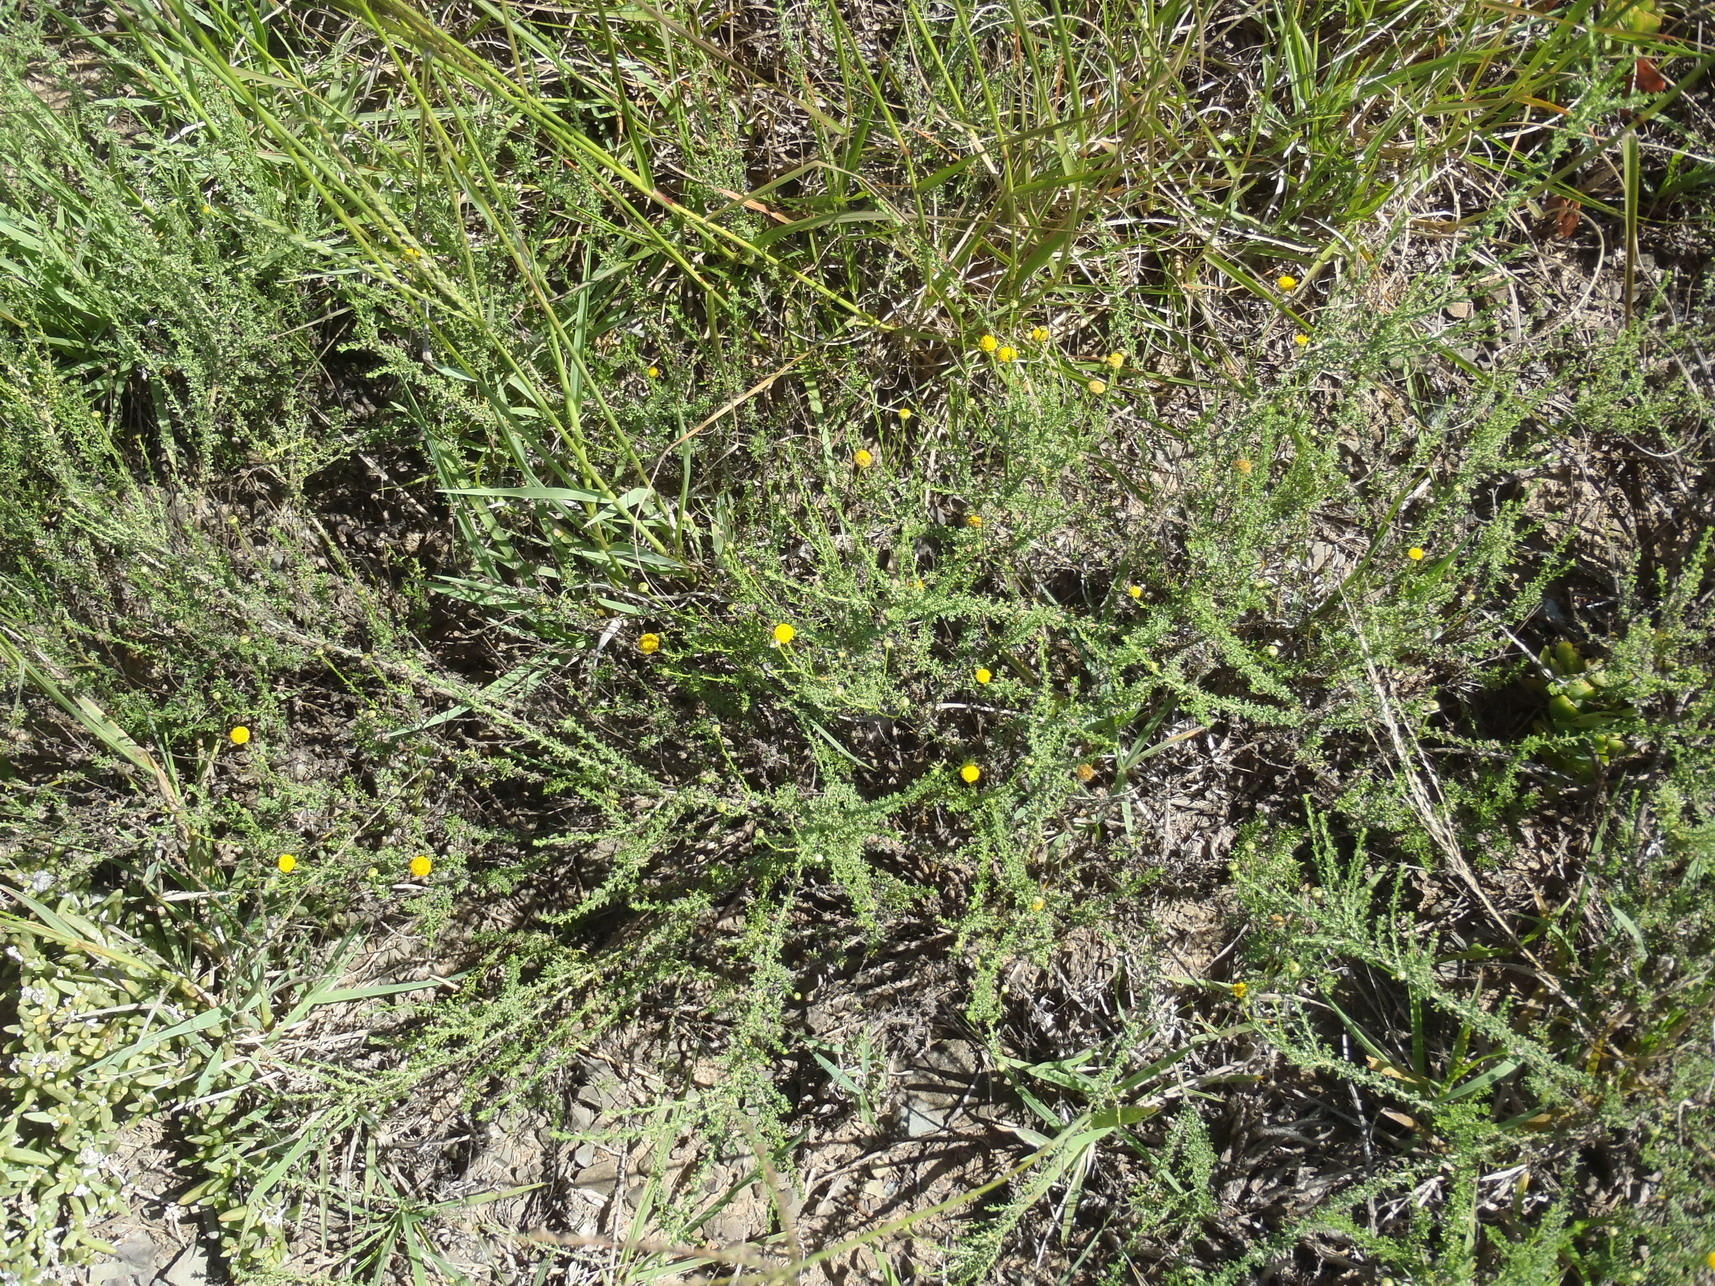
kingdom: Plantae
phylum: Tracheophyta
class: Magnoliopsida
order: Asterales
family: Asteraceae
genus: Pentzia
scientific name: Pentzia incana
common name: African sheepbush
